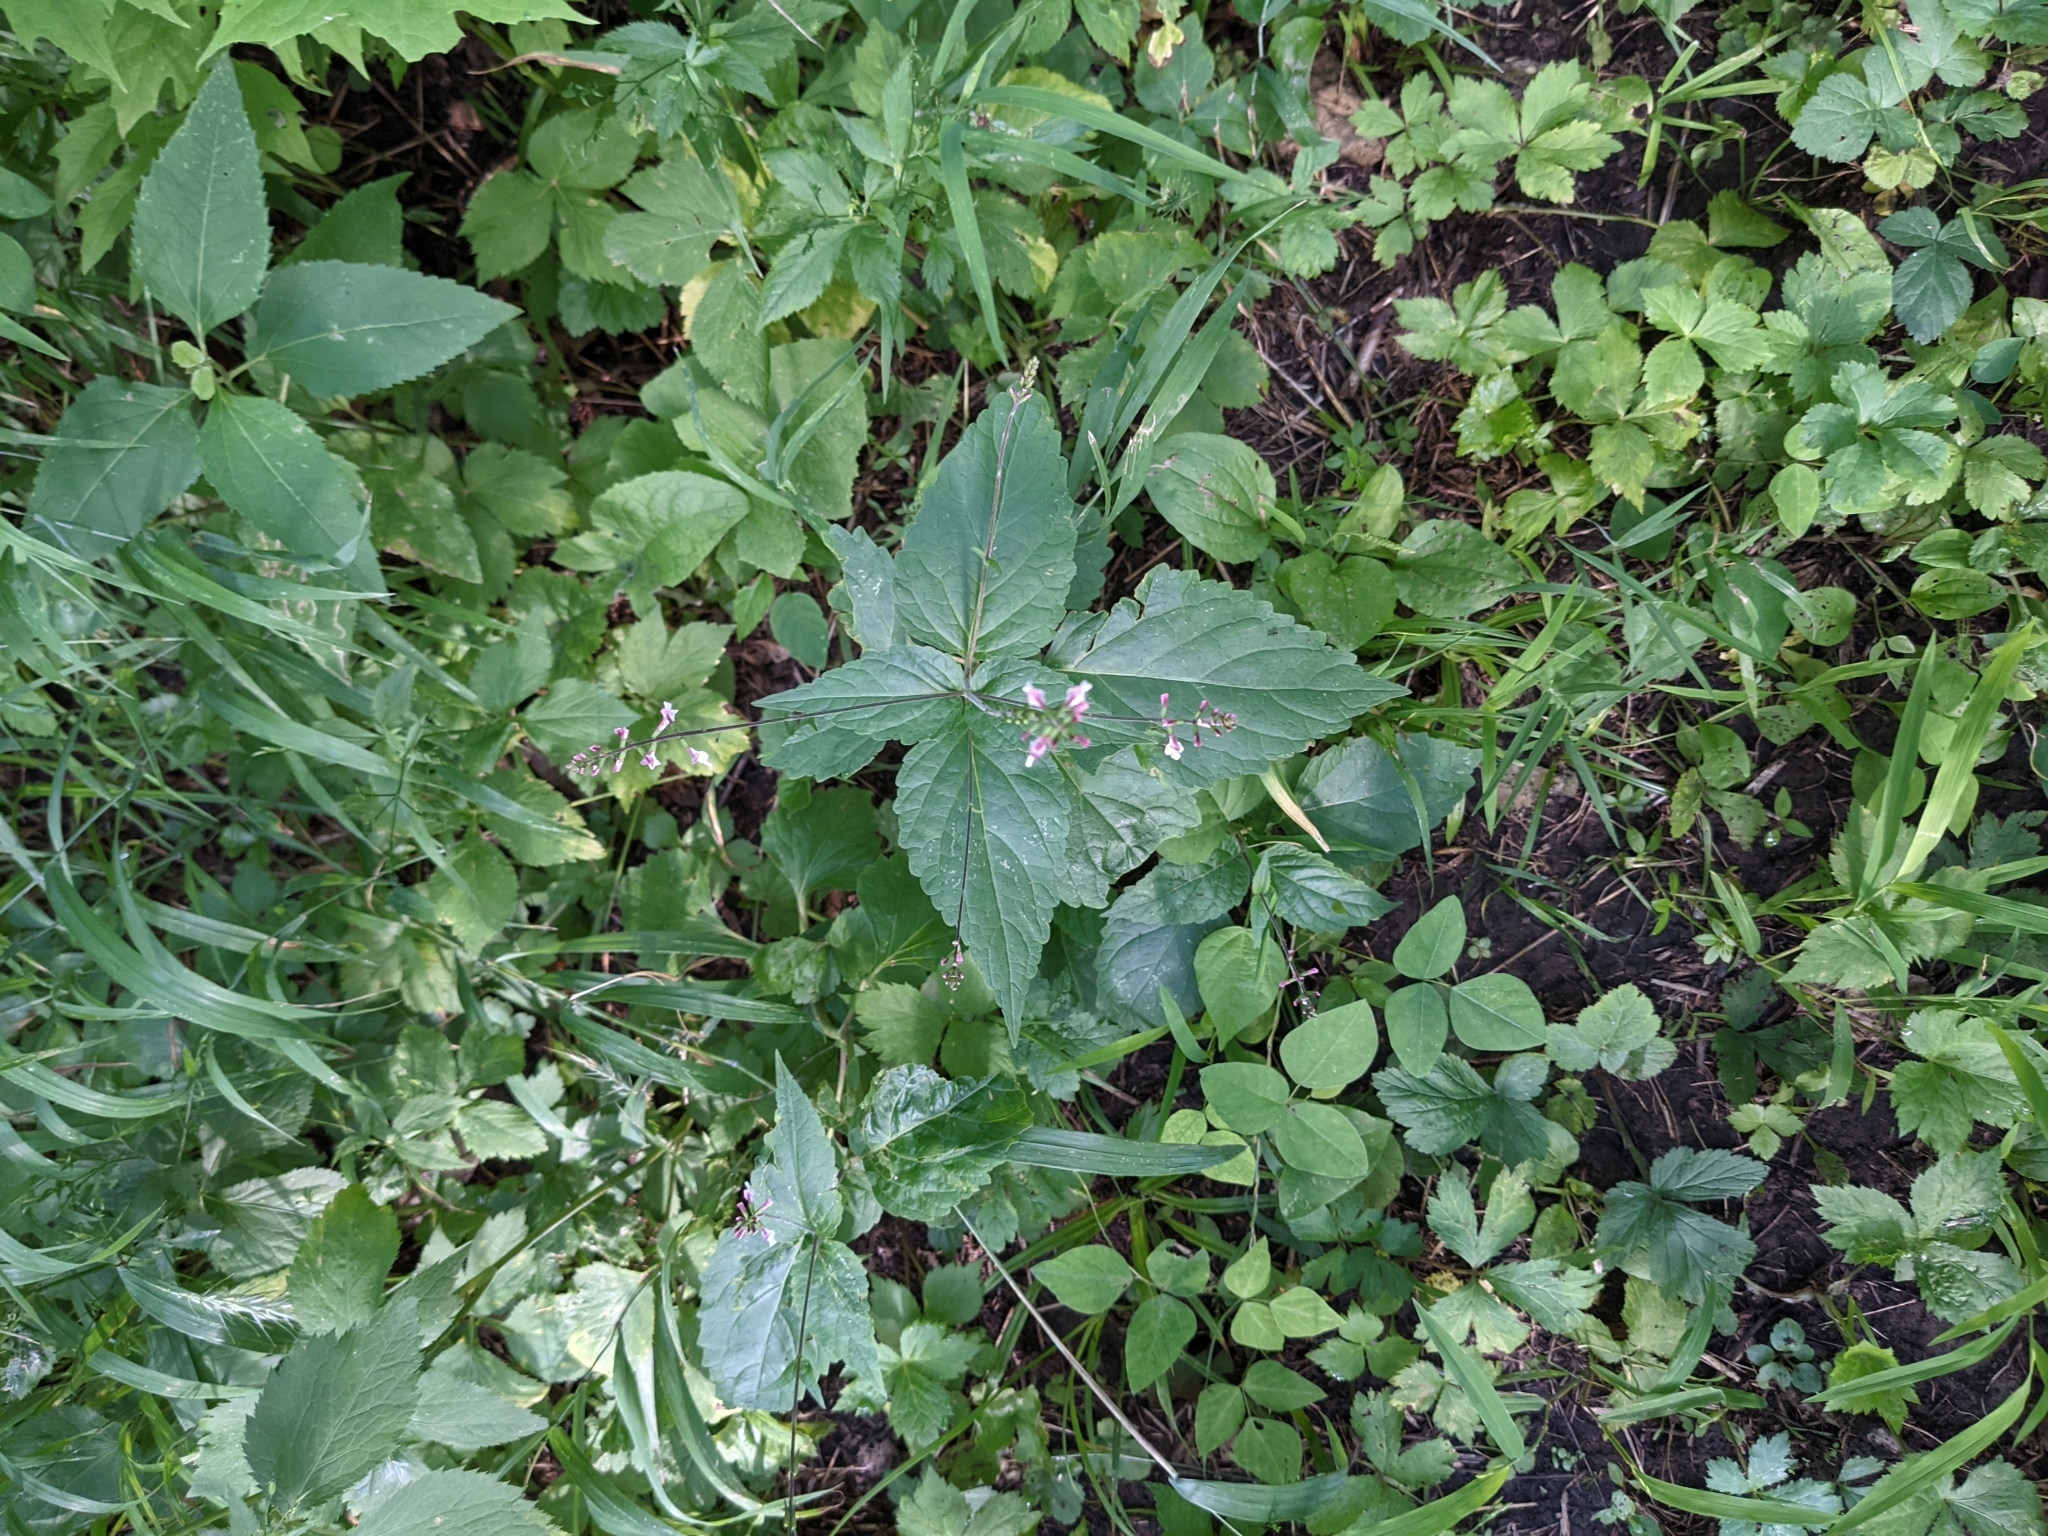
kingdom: Plantae
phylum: Tracheophyta
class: Magnoliopsida
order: Lamiales
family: Phrymaceae
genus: Phryma
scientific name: Phryma leptostachya
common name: American lopseed
